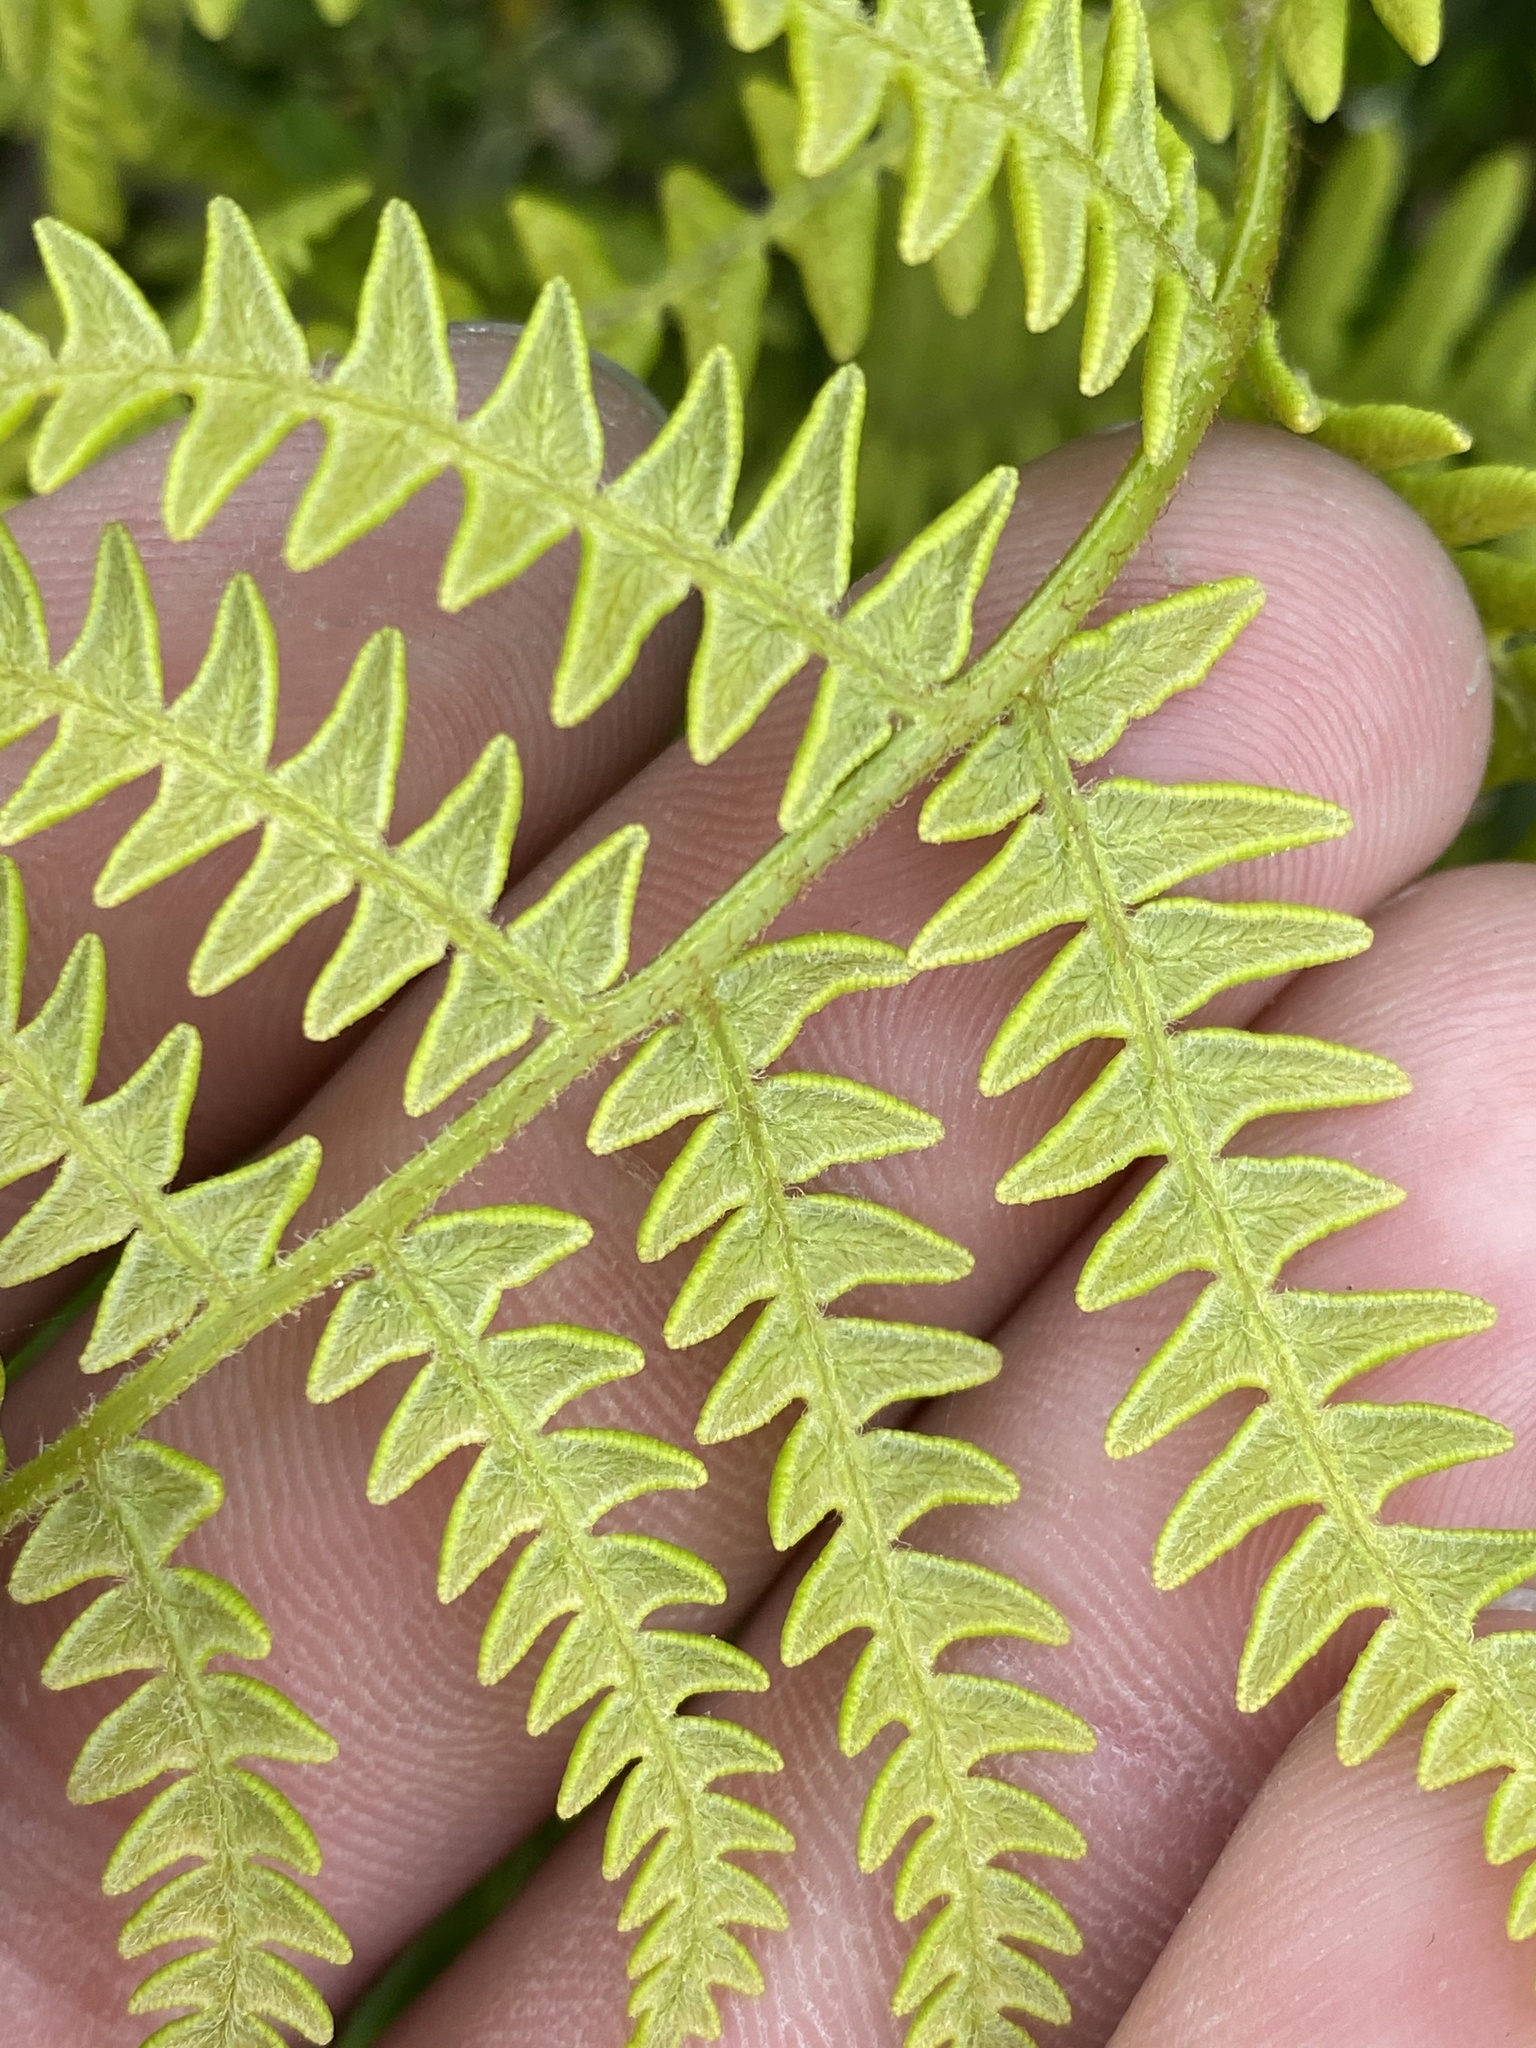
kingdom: Plantae
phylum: Tracheophyta
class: Polypodiopsida
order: Polypodiales
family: Dennstaedtiaceae
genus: Pteridium
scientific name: Pteridium aquilinum
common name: Bracken
